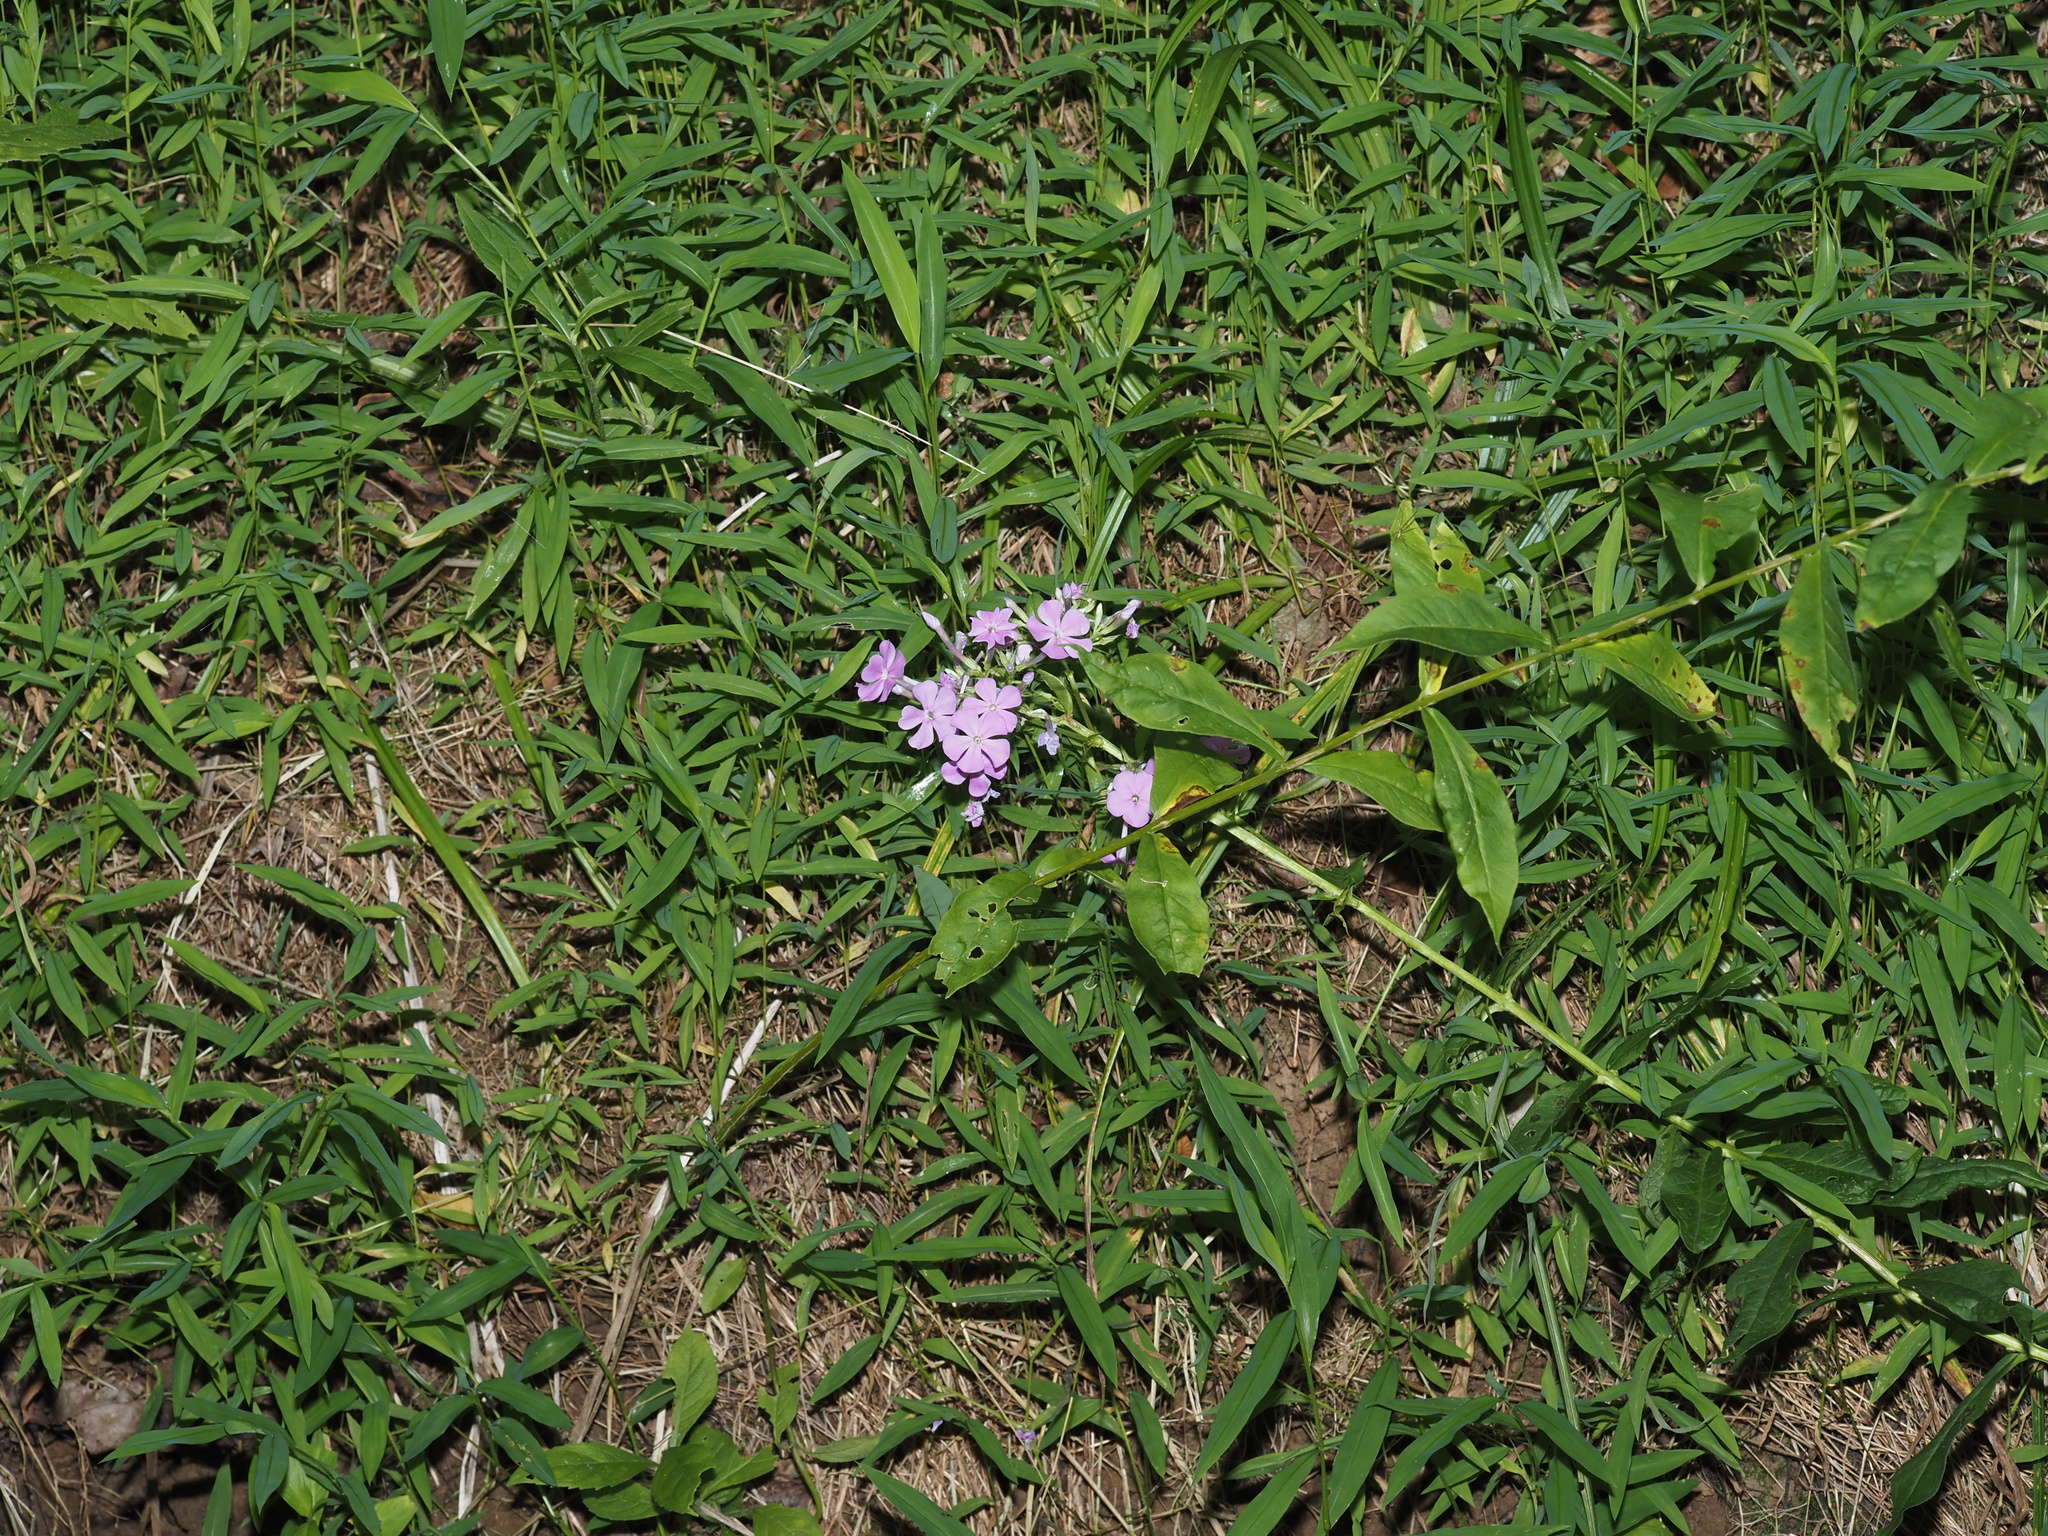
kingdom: Plantae
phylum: Tracheophyta
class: Magnoliopsida
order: Ericales
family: Polemoniaceae
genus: Phlox
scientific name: Phlox paniculata
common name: Fall phlox
